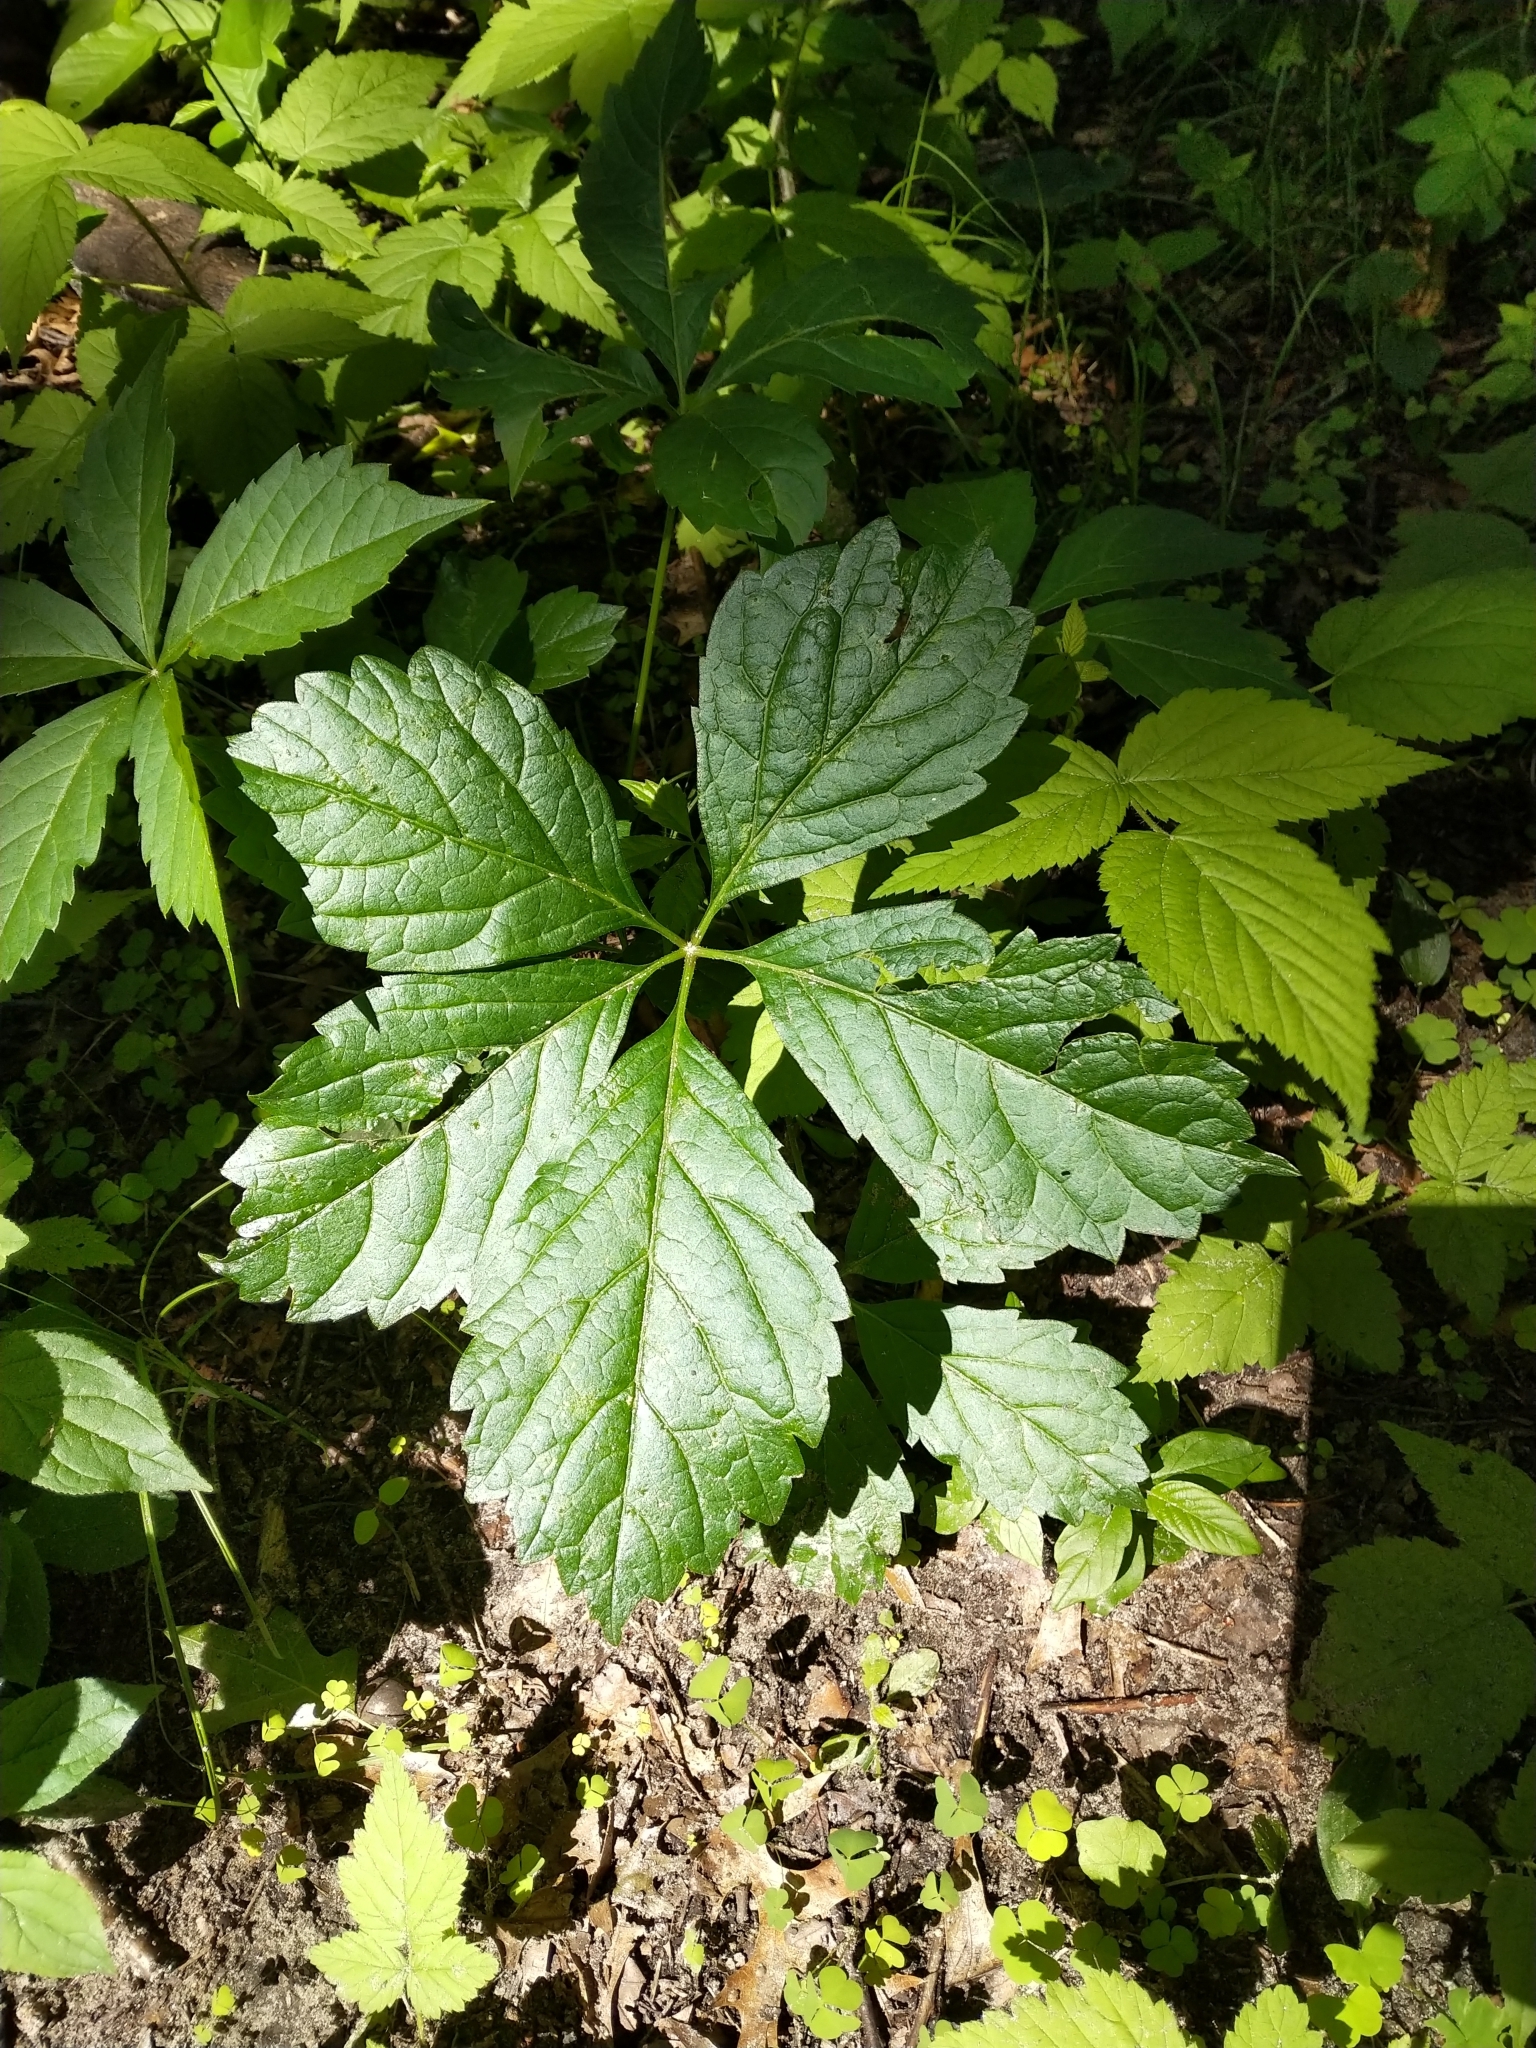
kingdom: Plantae
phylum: Tracheophyta
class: Magnoliopsida
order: Vitales
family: Vitaceae
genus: Parthenocissus
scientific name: Parthenocissus quinquefolia
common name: Virginia-creeper
